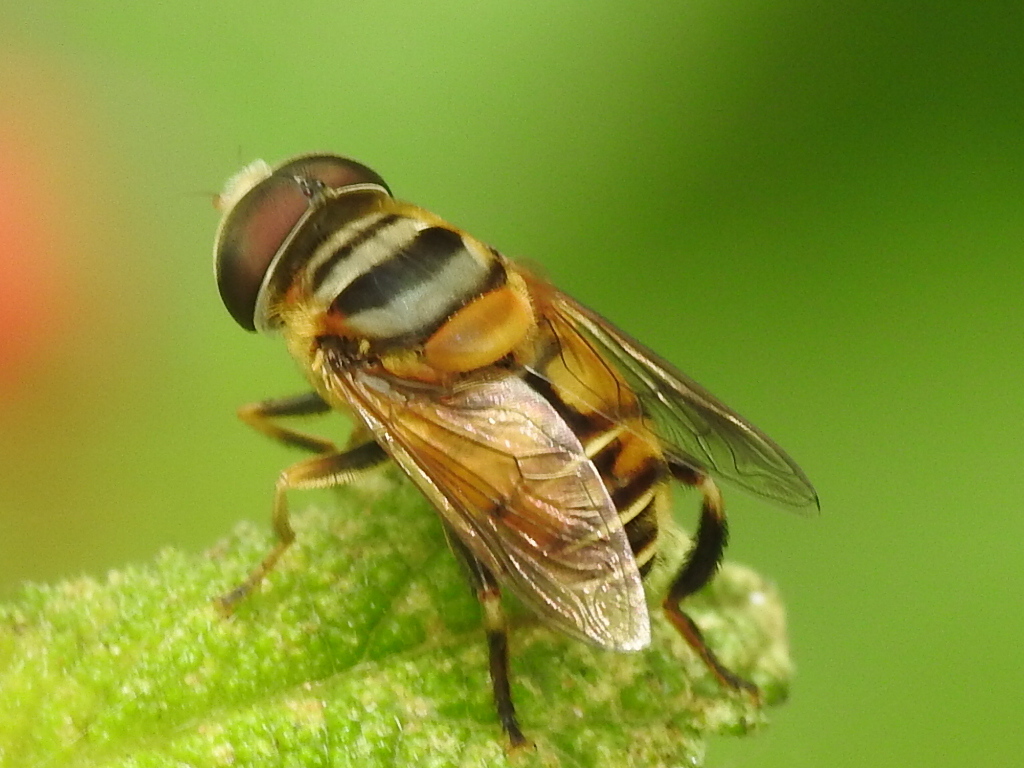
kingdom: Animalia
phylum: Arthropoda
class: Insecta
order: Diptera
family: Syrphidae
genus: Palpada
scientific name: Palpada vinetorum
